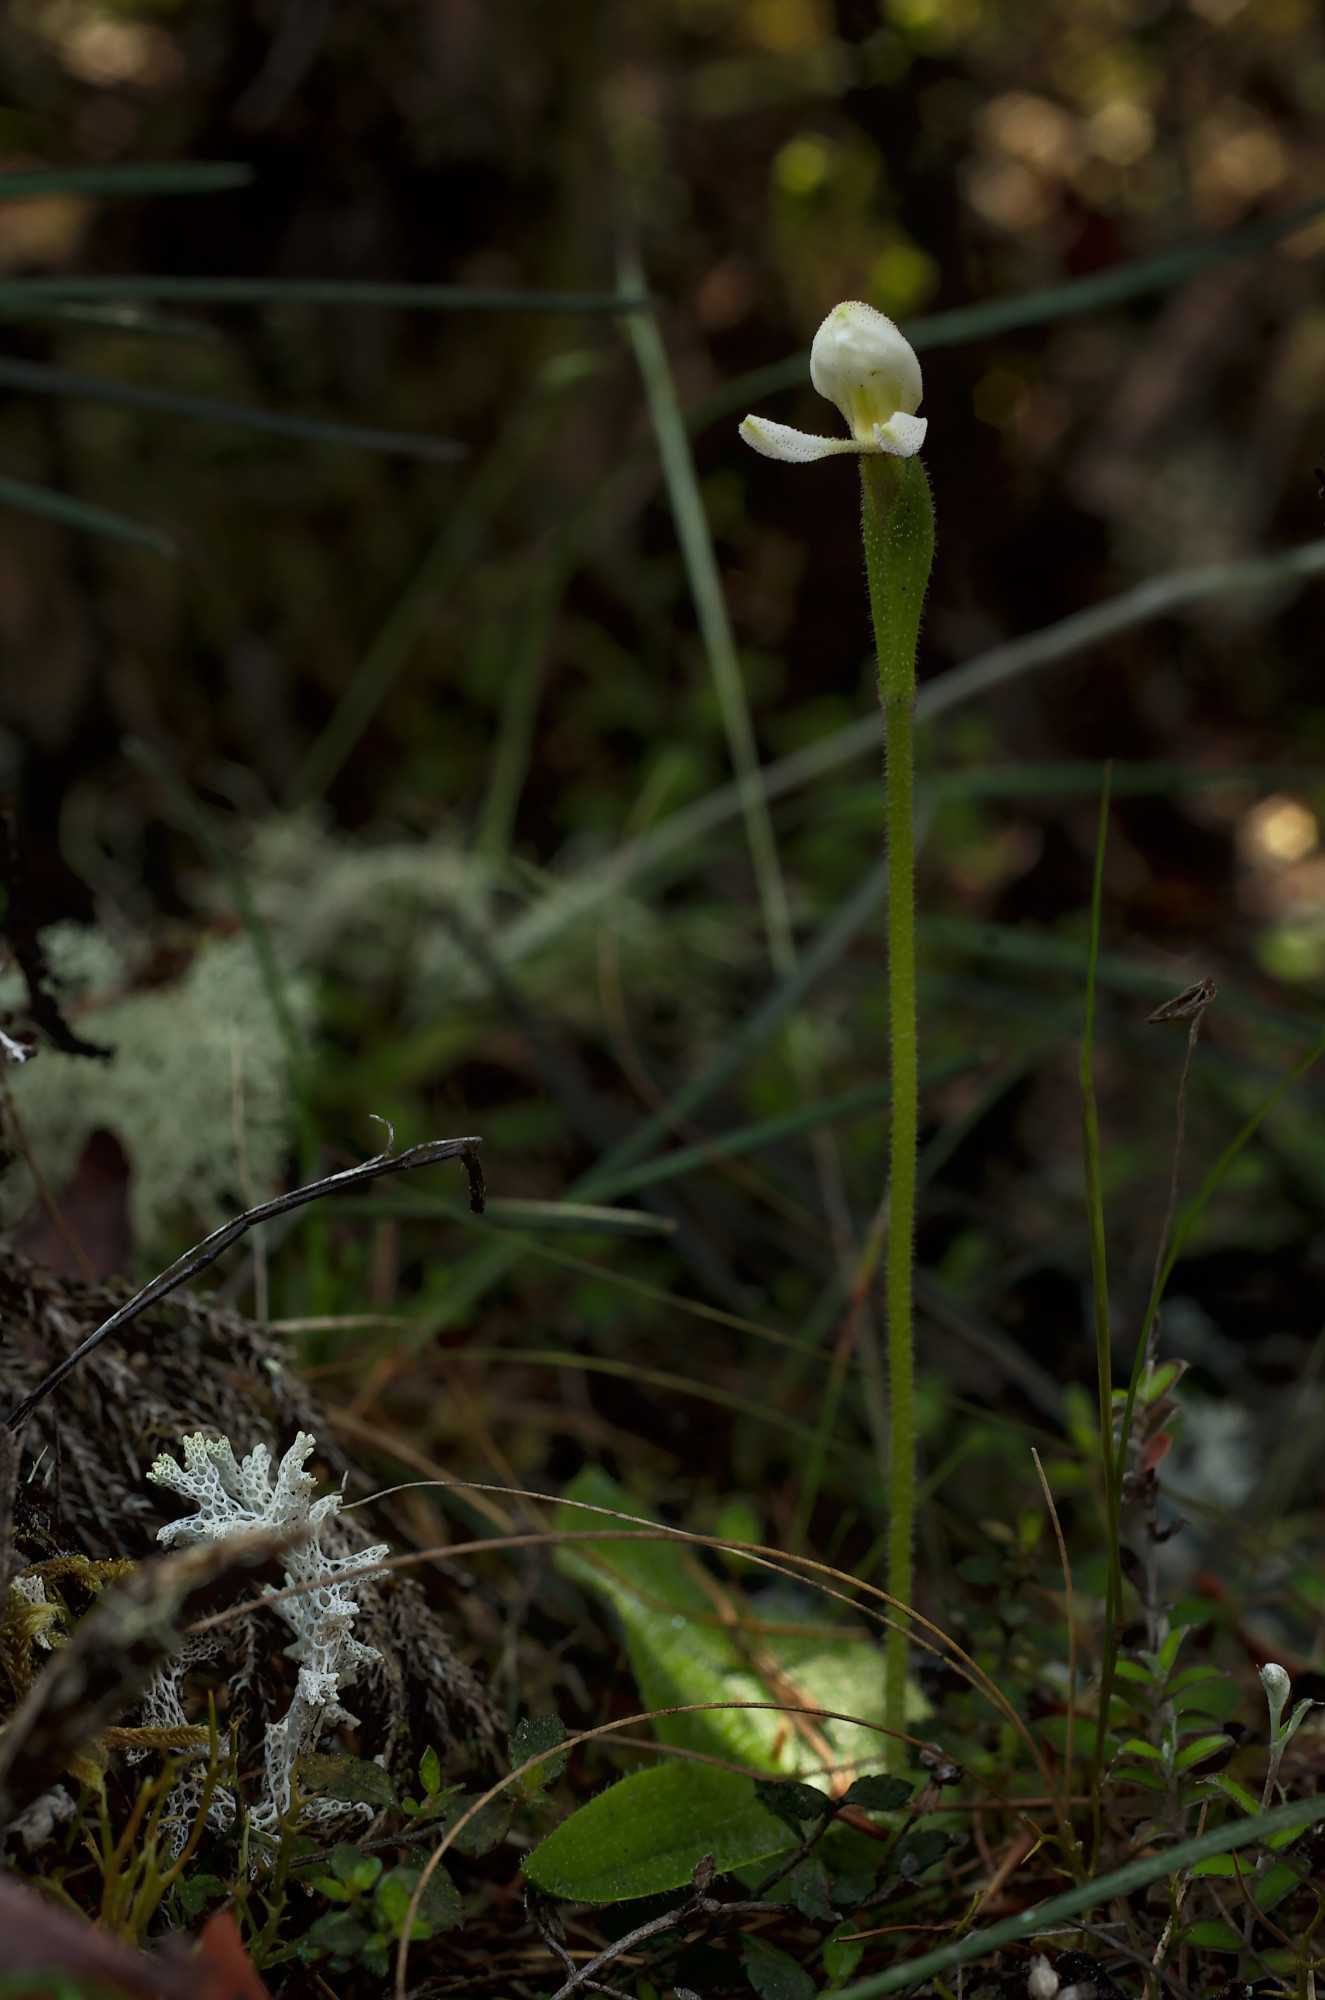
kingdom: Plantae
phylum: Tracheophyta
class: Liliopsida
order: Asparagales
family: Orchidaceae
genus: Aporostylis
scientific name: Aporostylis bifolia
